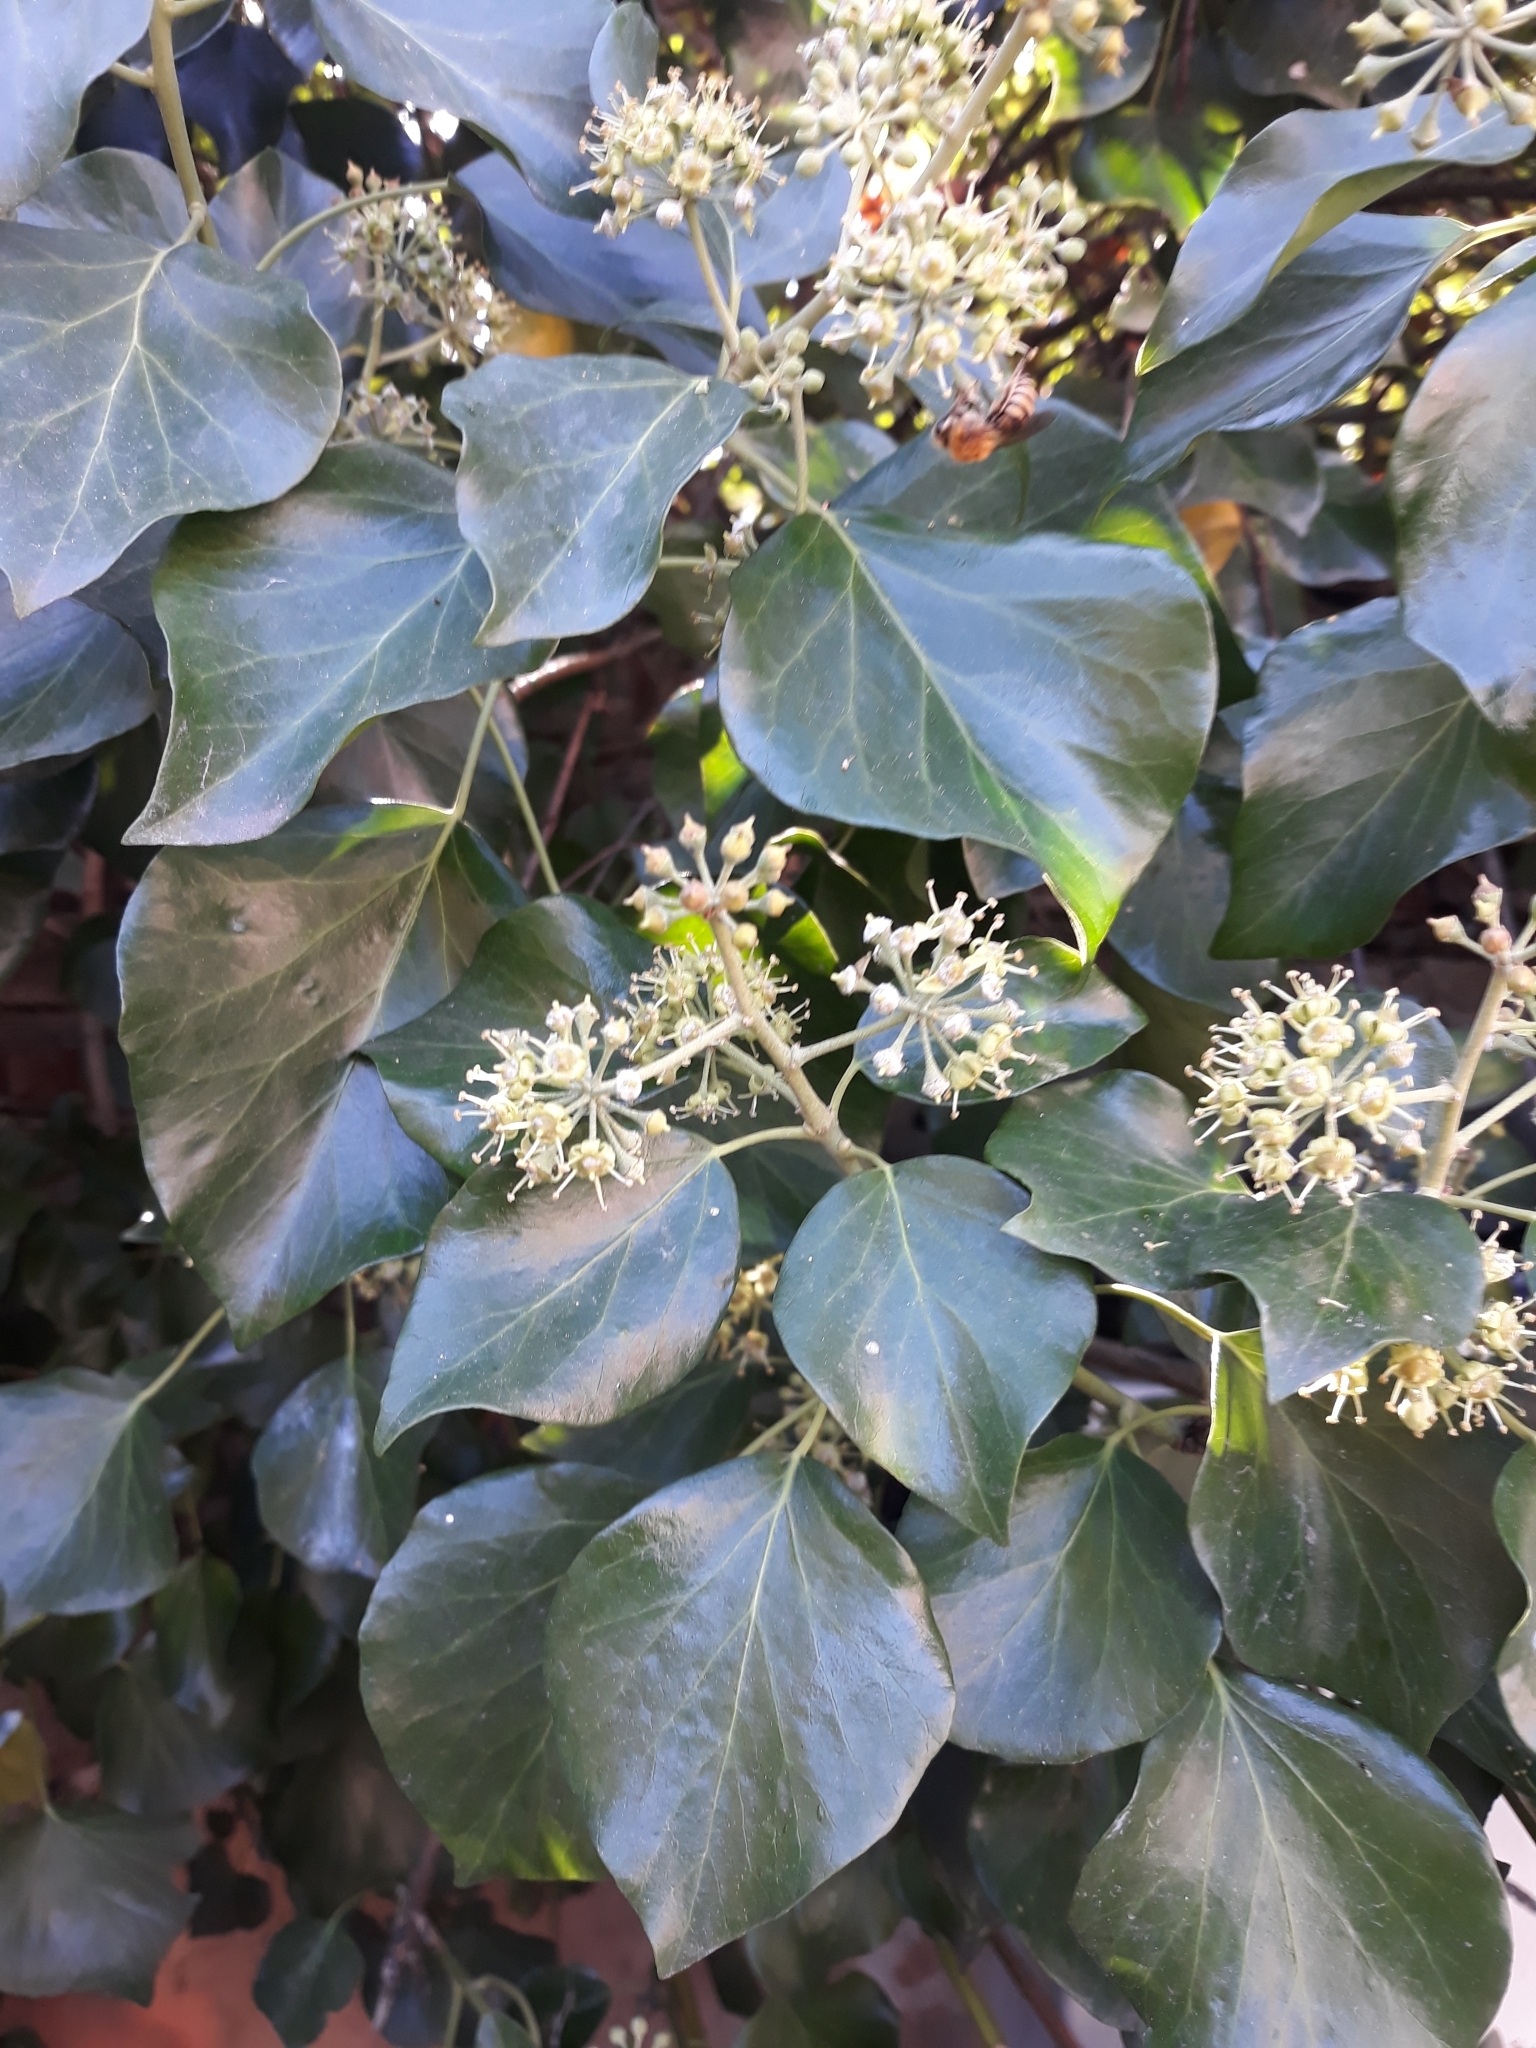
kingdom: Plantae
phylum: Tracheophyta
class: Magnoliopsida
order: Apiales
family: Araliaceae
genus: Hedera
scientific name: Hedera helix
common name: Ivy
